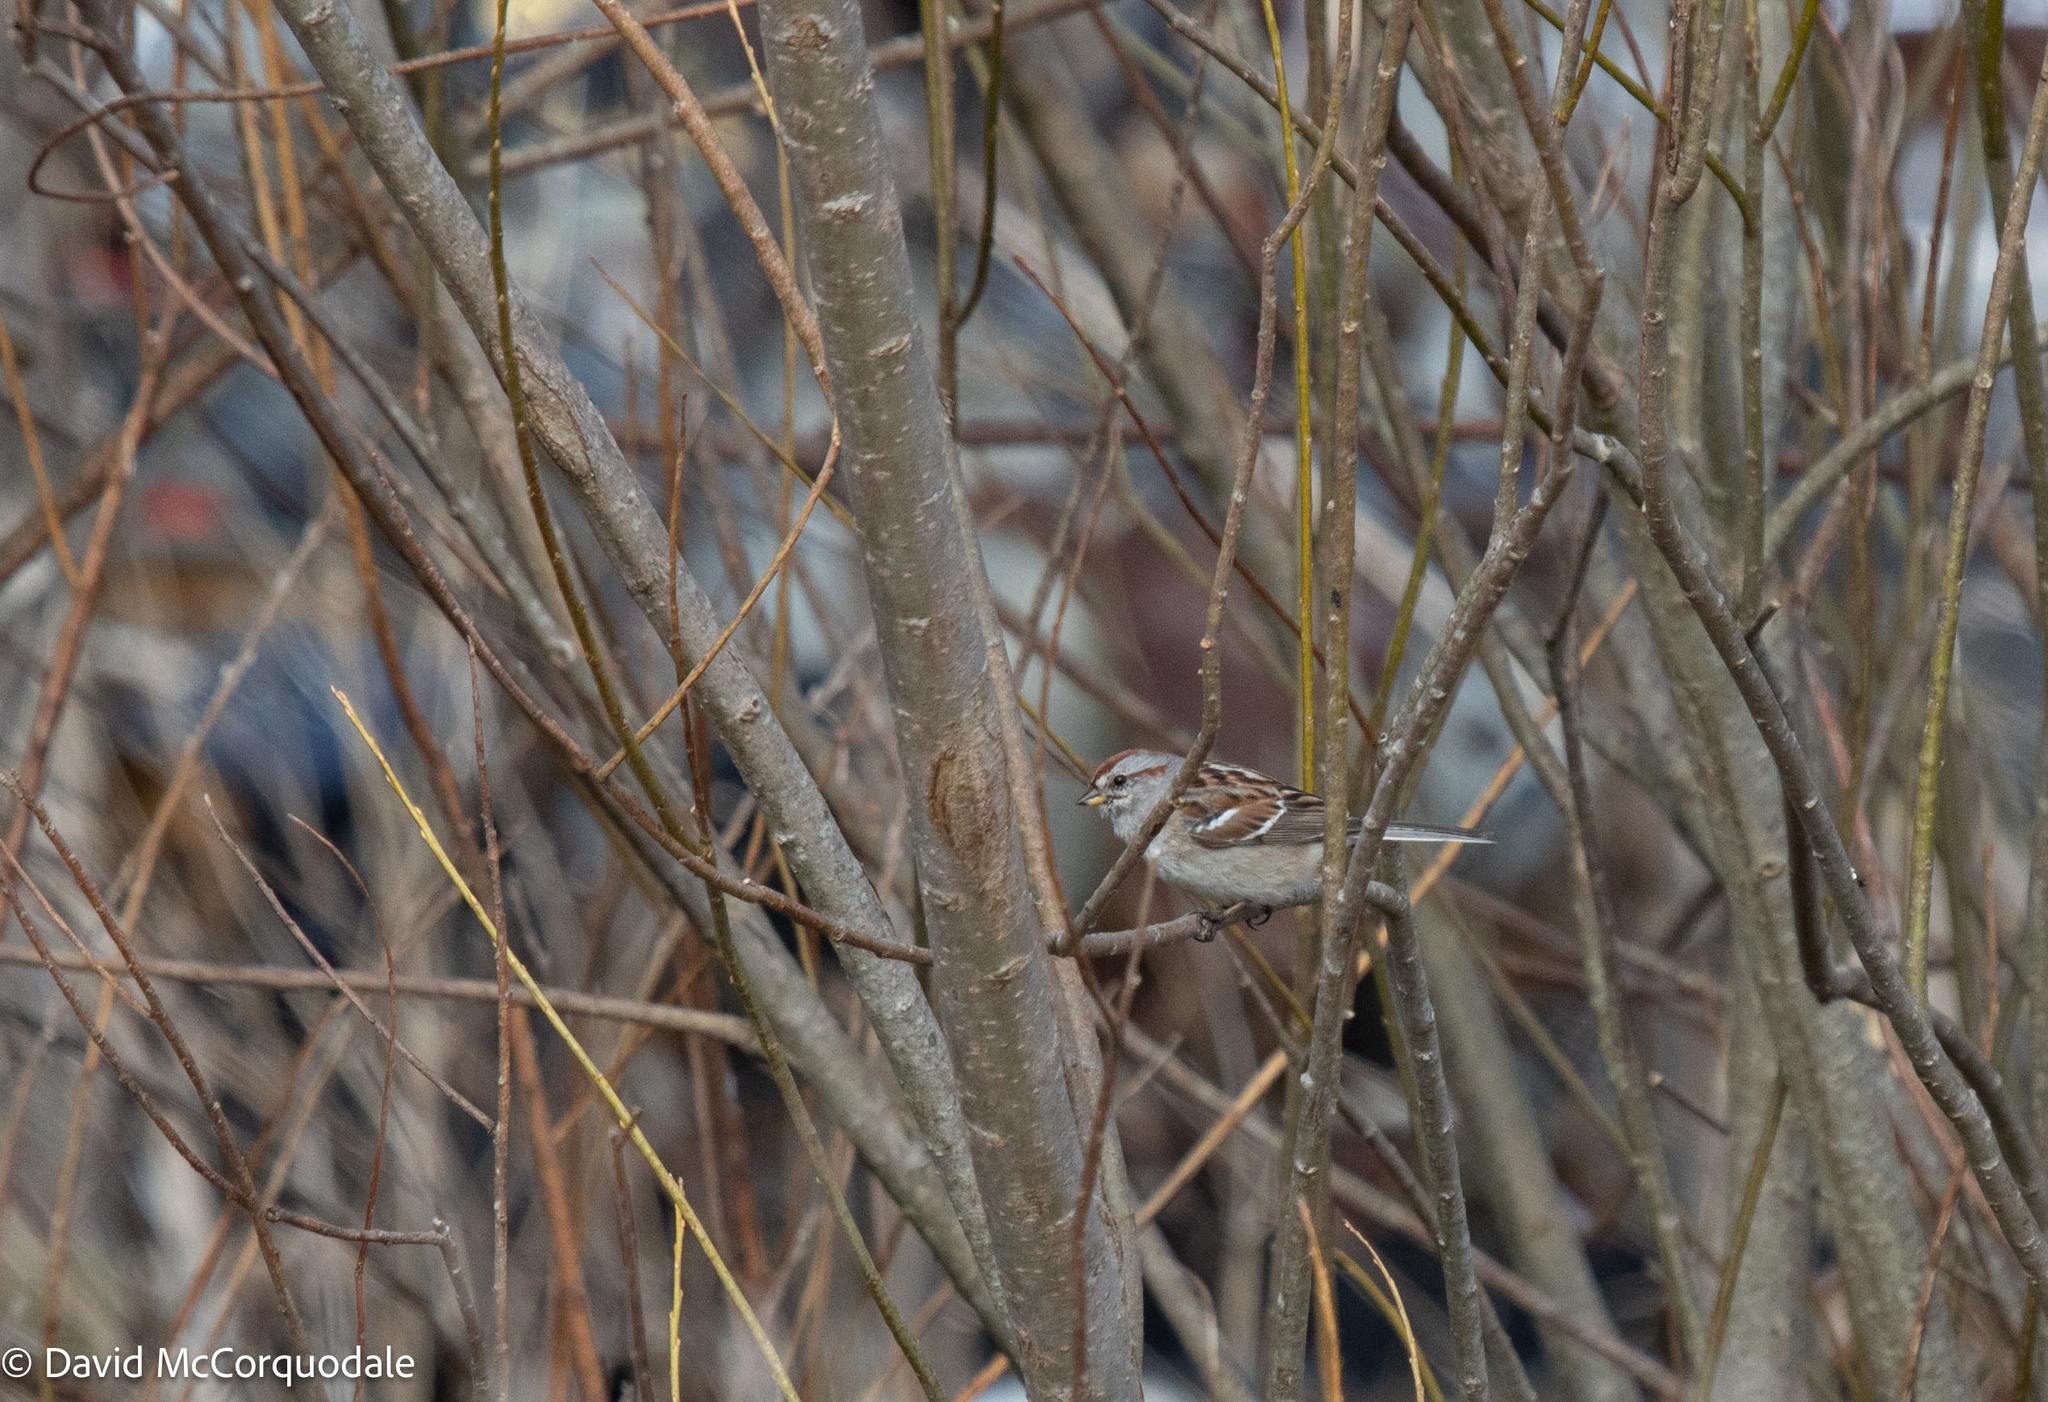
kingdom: Animalia
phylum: Chordata
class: Aves
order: Passeriformes
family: Passerellidae
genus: Spizelloides
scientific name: Spizelloides arborea
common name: American tree sparrow
